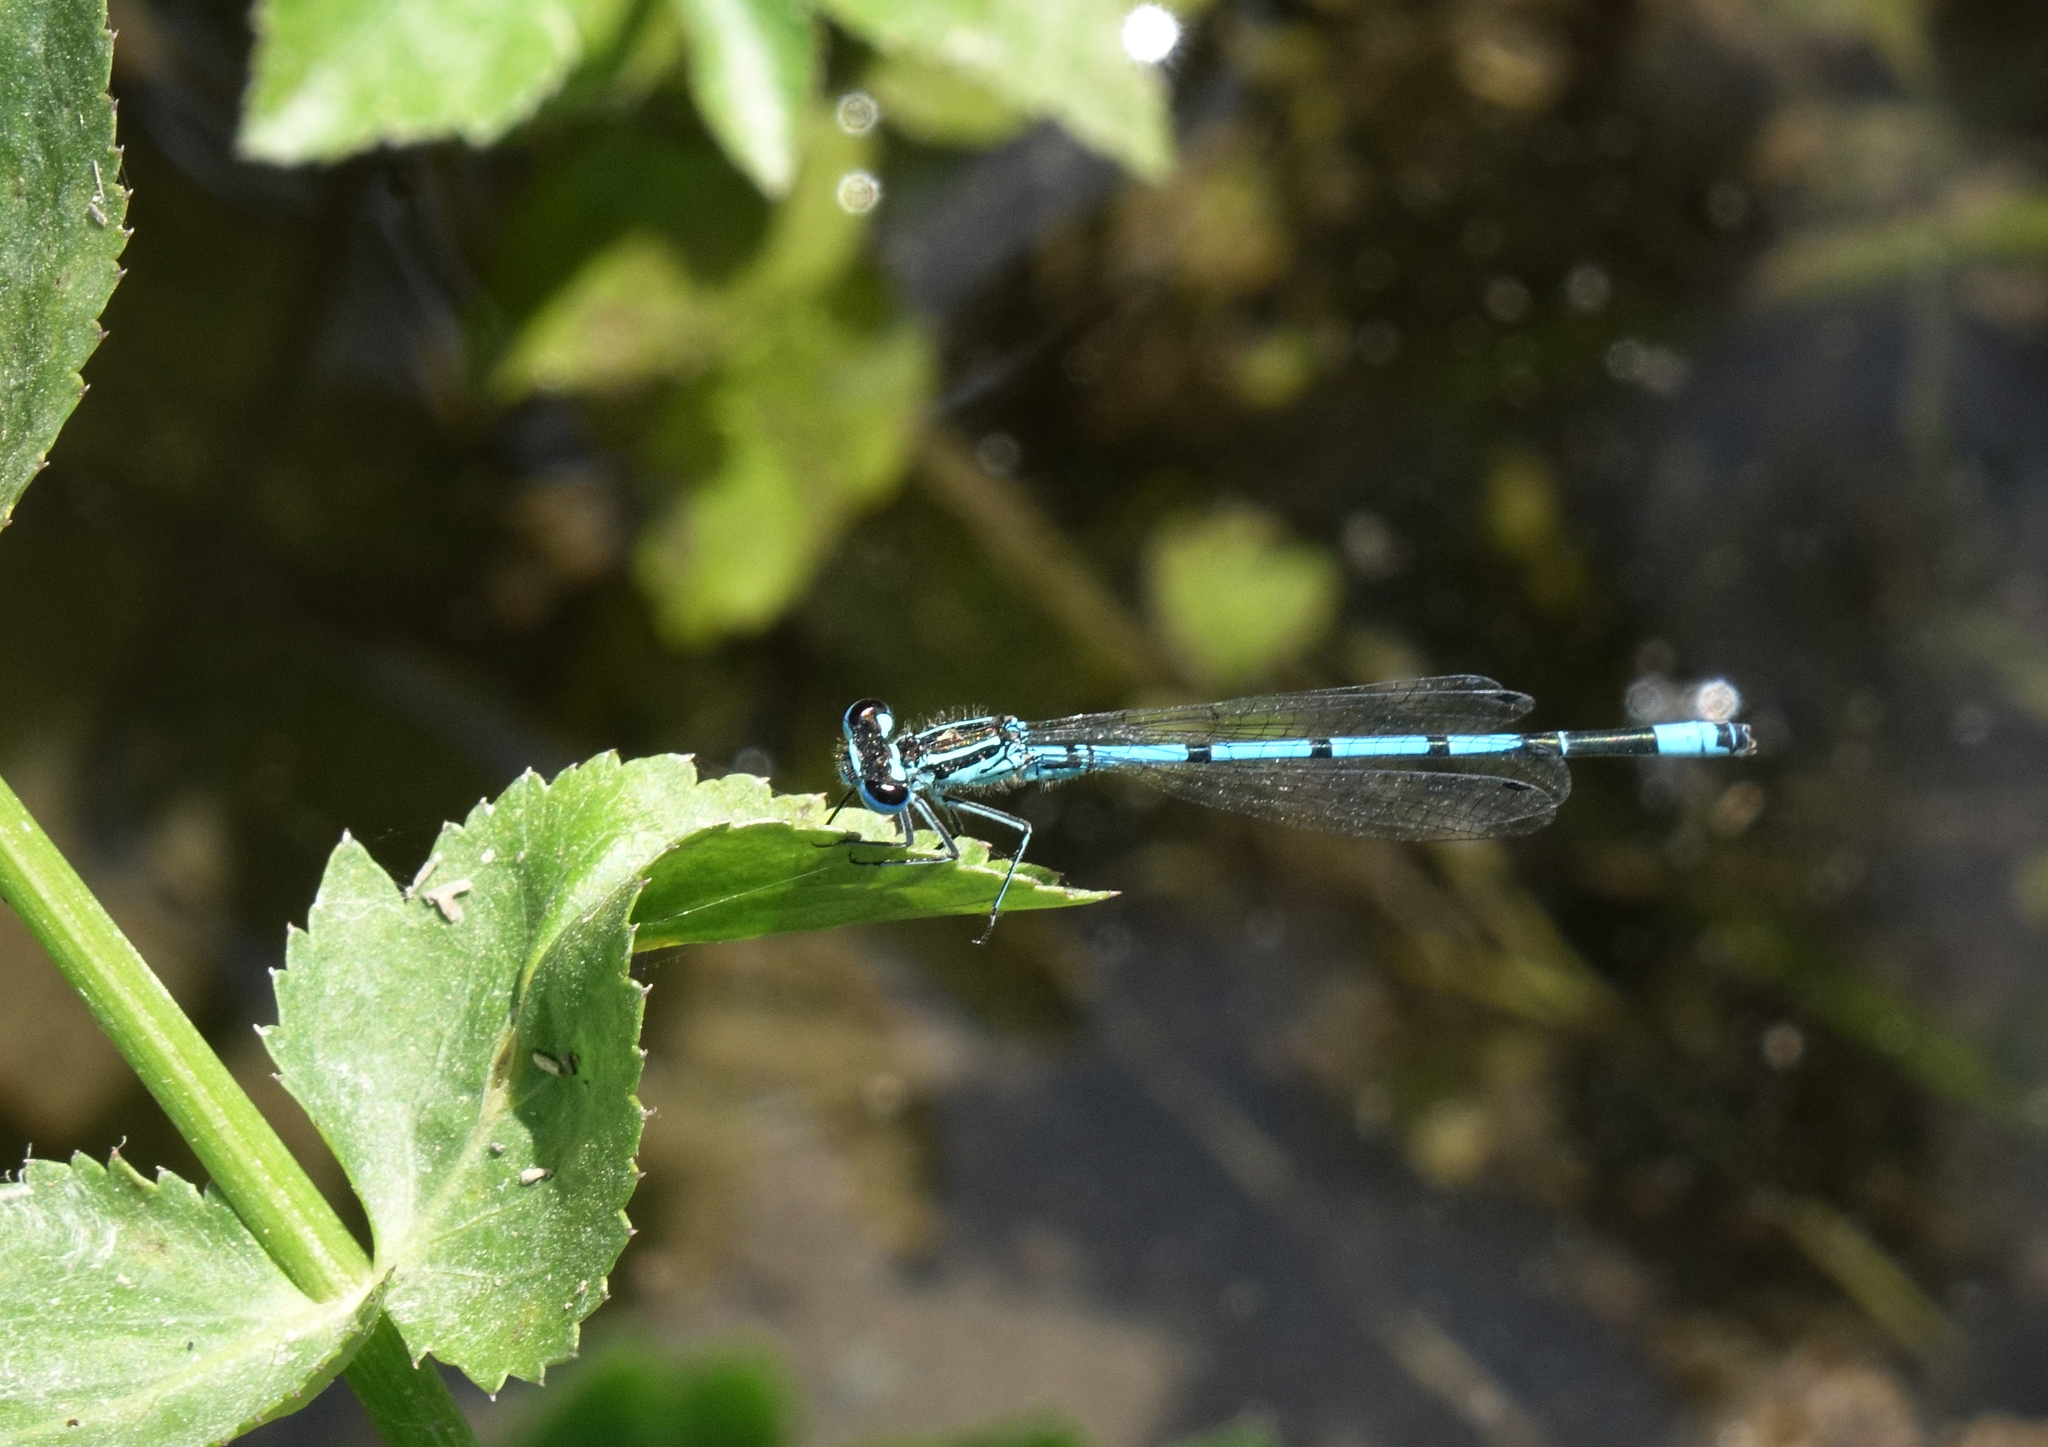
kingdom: Animalia
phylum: Arthropoda
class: Insecta
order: Odonata
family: Coenagrionidae
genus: Coenagrion
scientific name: Coenagrion puella
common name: Azure damselfly
